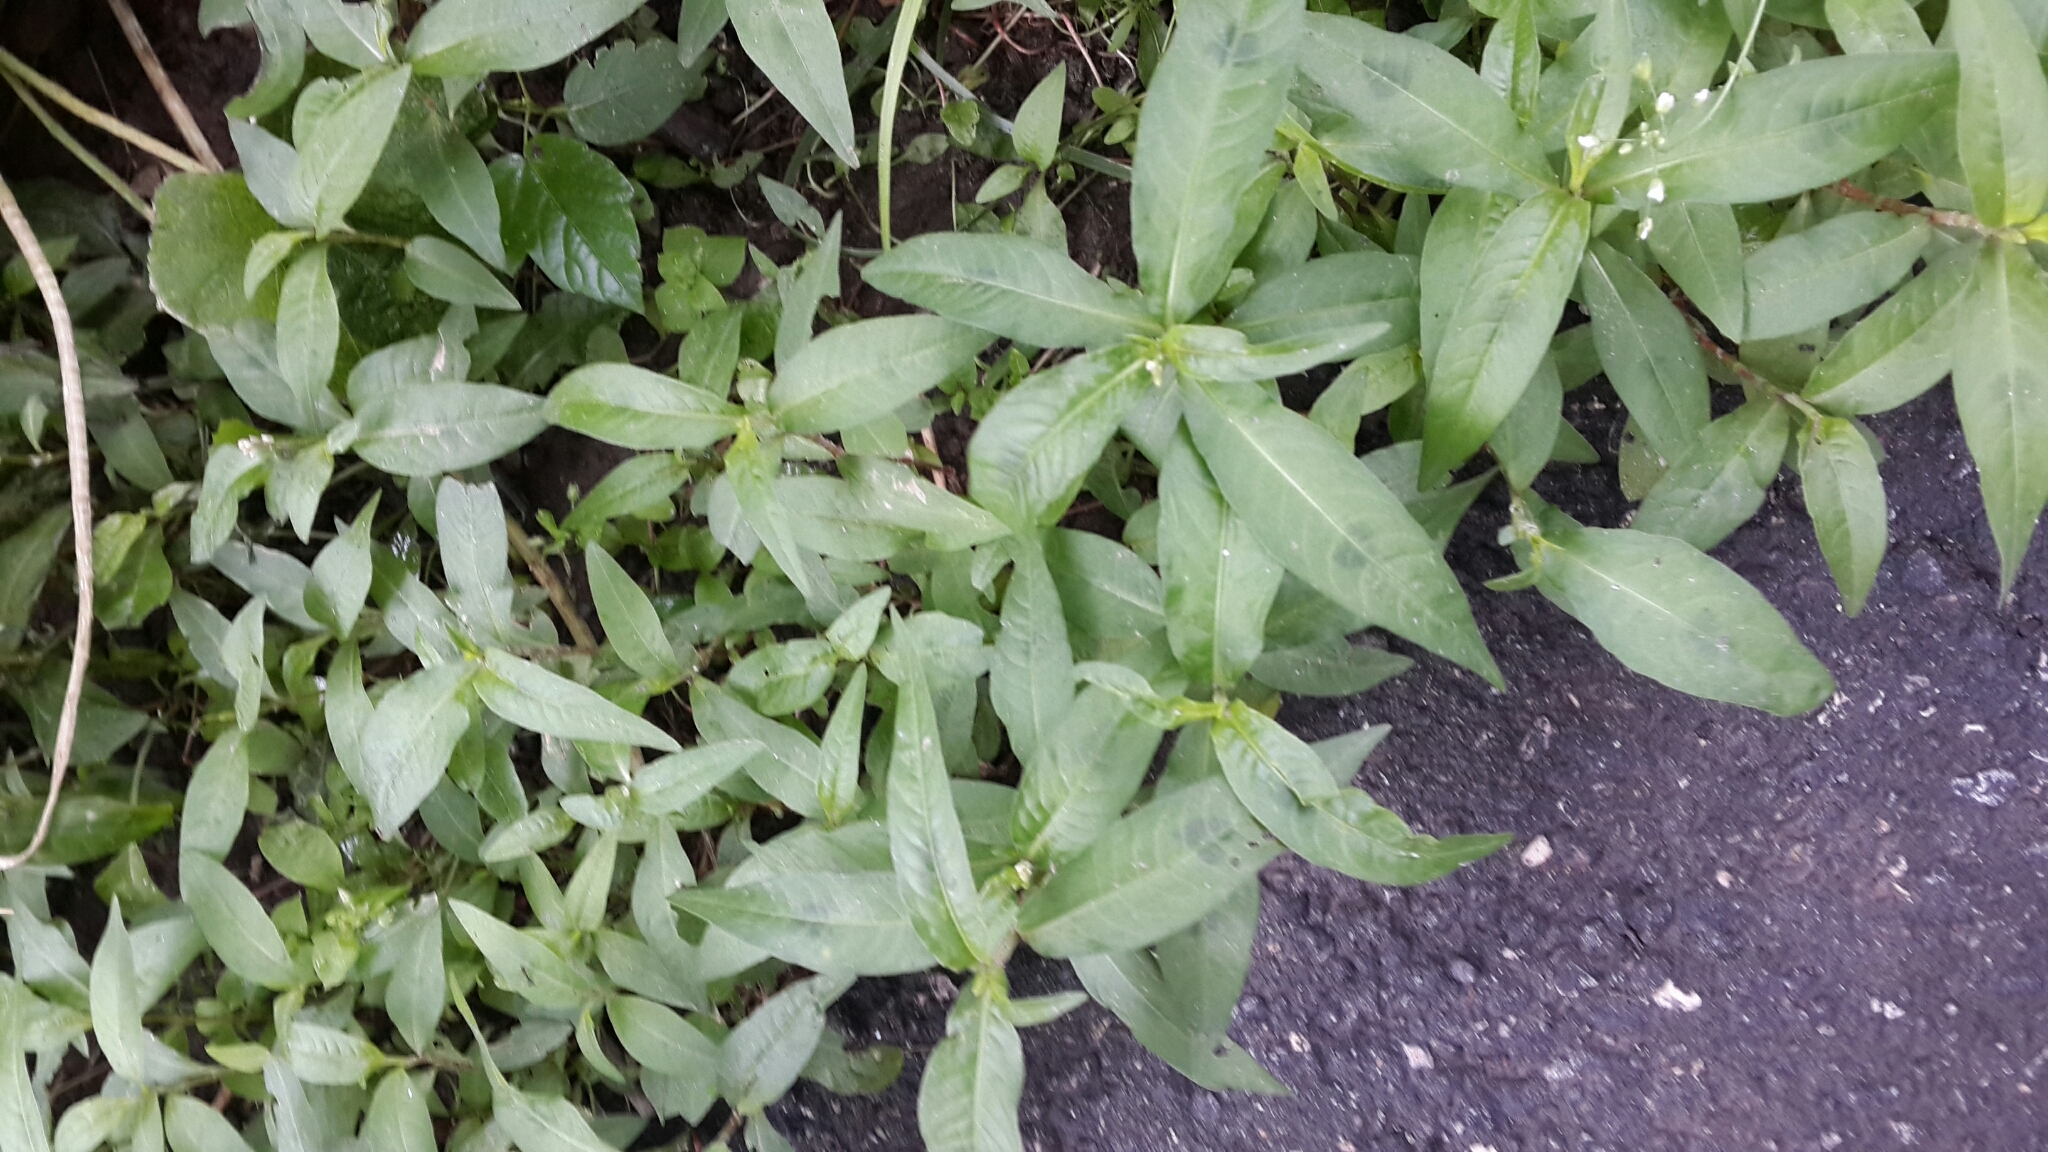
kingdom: Plantae
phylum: Tracheophyta
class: Magnoliopsida
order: Caryophyllales
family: Polygonaceae
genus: Persicaria
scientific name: Persicaria maculosa
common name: Redshank
